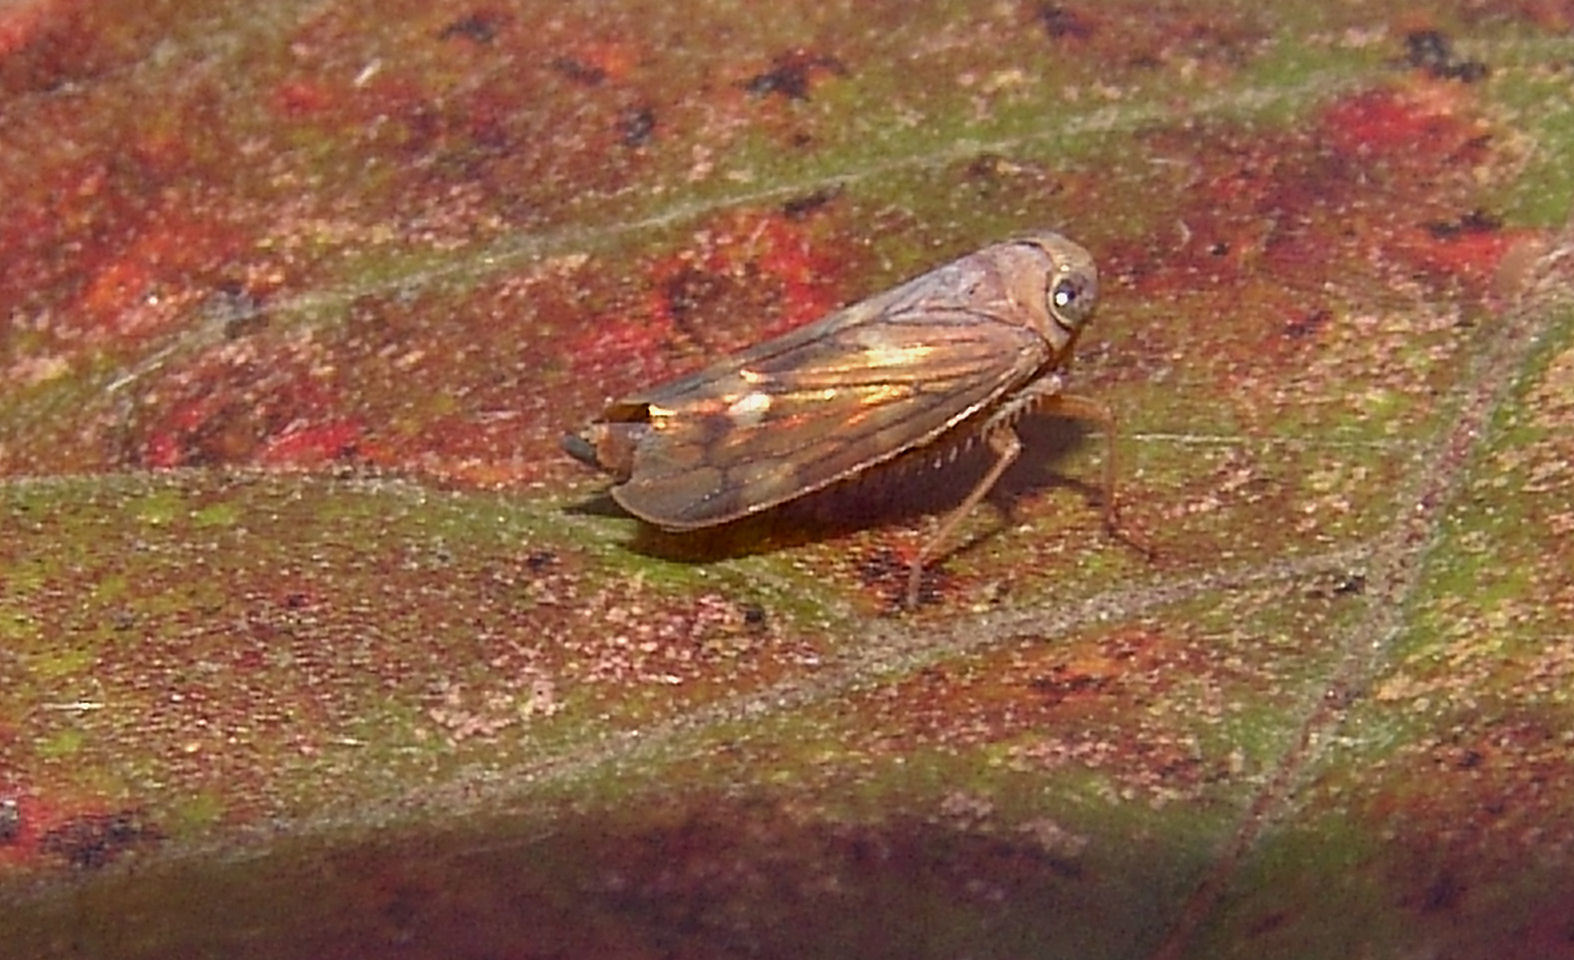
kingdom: Animalia
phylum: Arthropoda
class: Insecta
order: Hemiptera
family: Cicadellidae
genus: Jikradia
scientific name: Jikradia olitoria
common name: Coppery leafhopper
